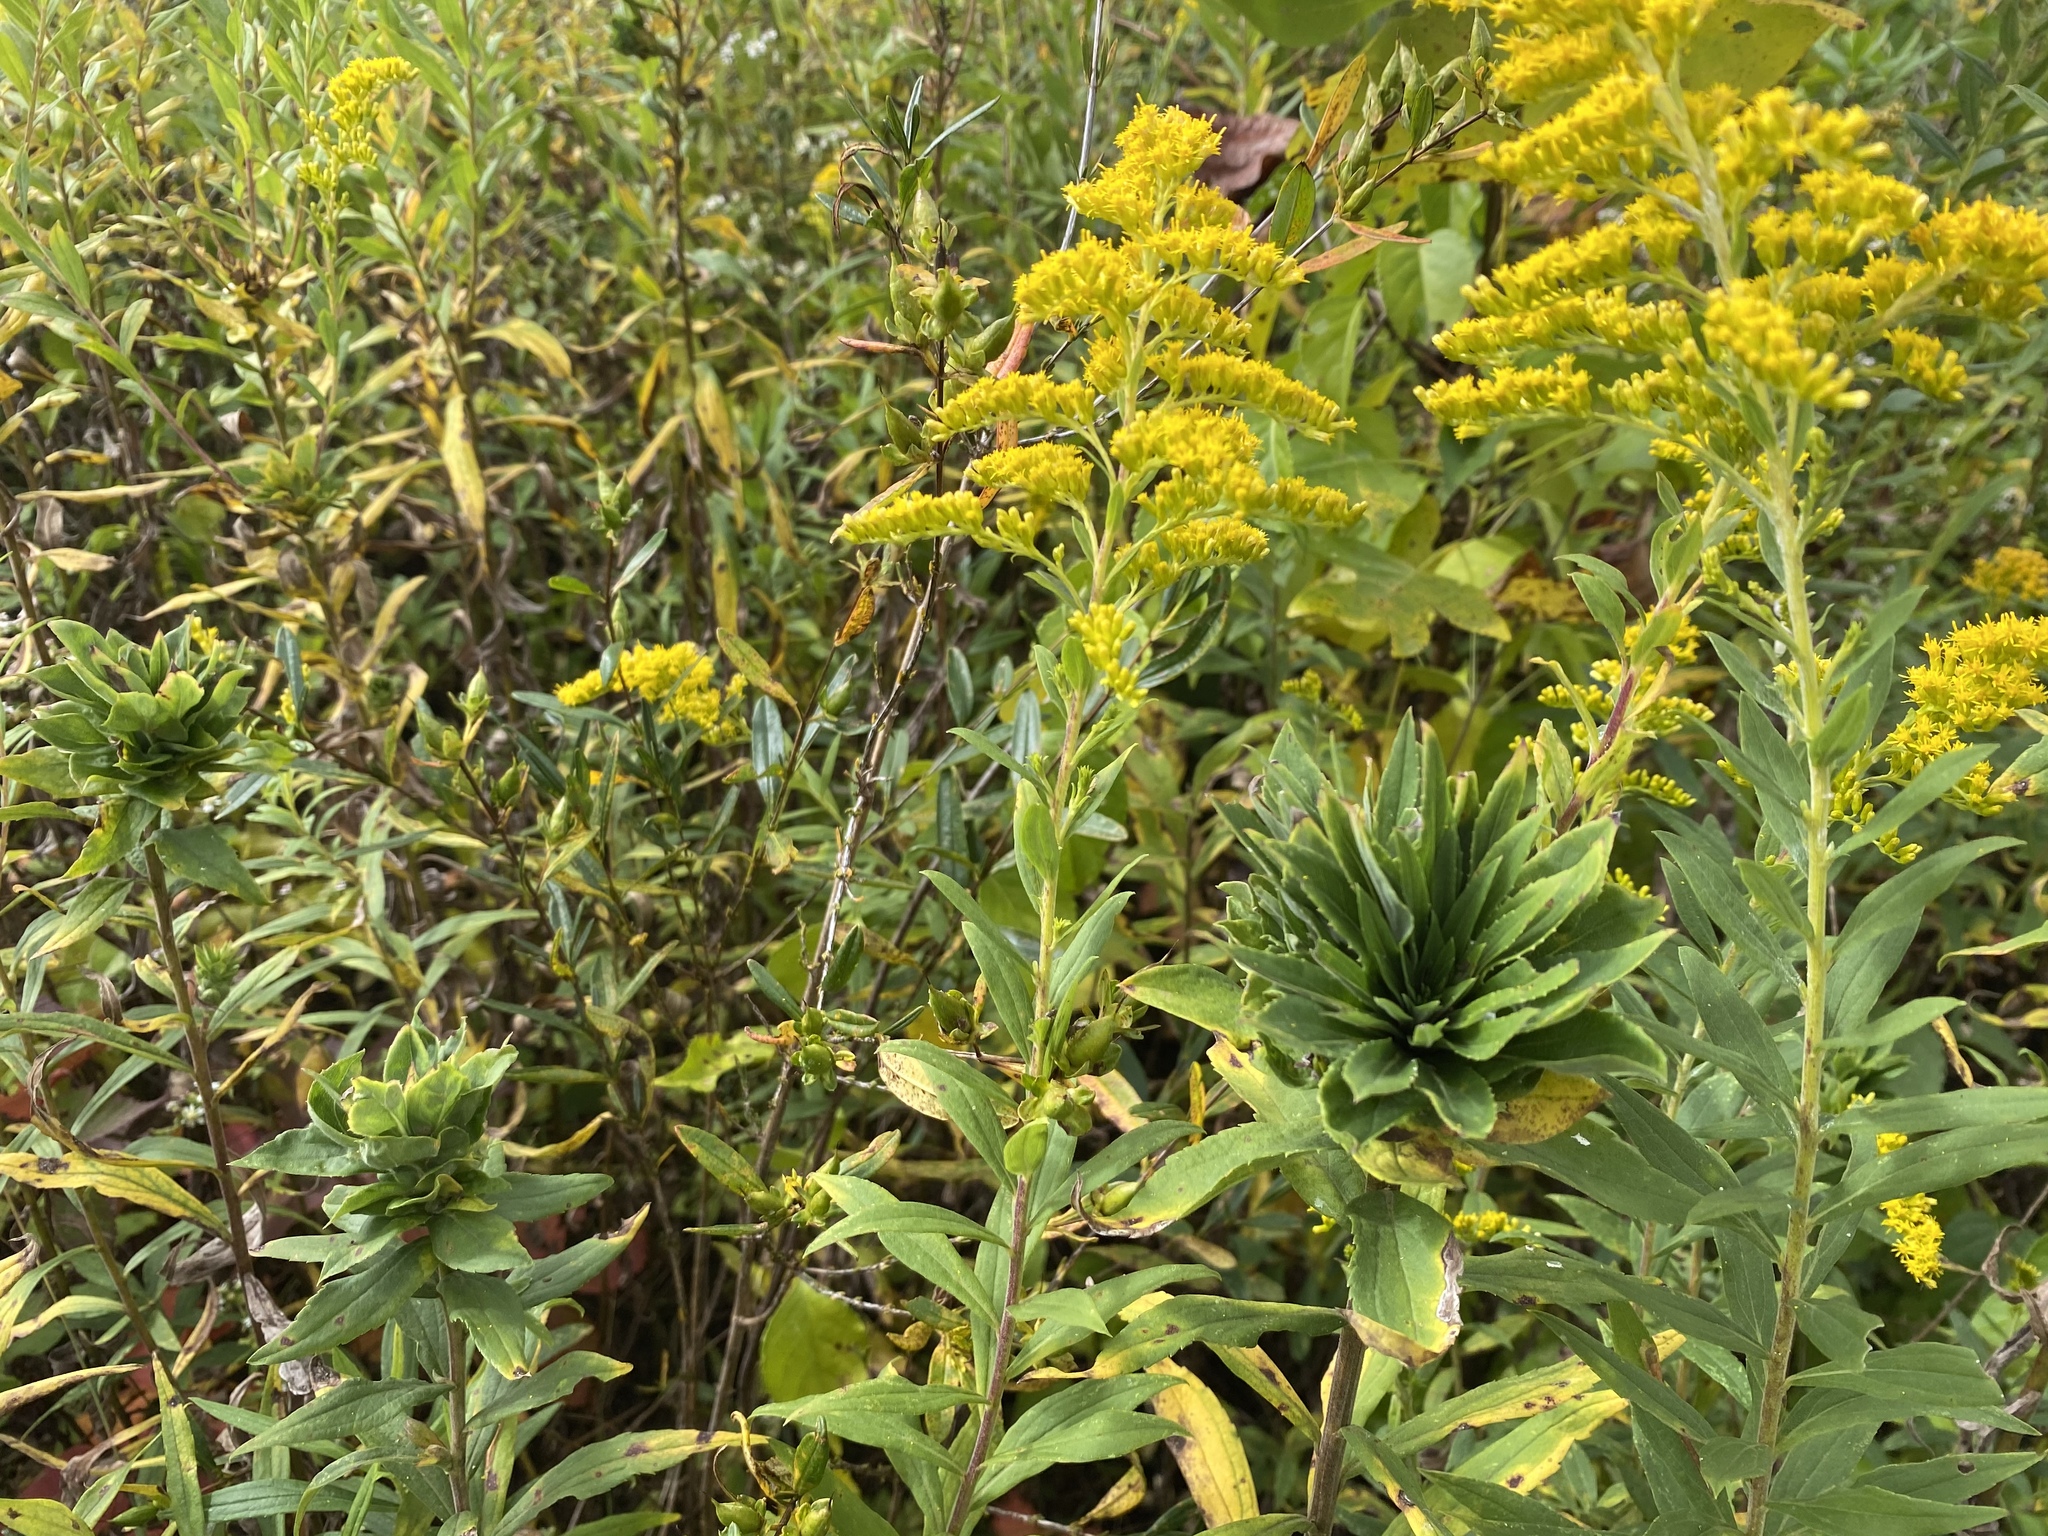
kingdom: Animalia
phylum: Arthropoda
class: Insecta
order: Diptera
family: Cecidomyiidae
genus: Rhopalomyia
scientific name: Rhopalomyia solidaginis
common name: Goldenrod bunch gall midge
